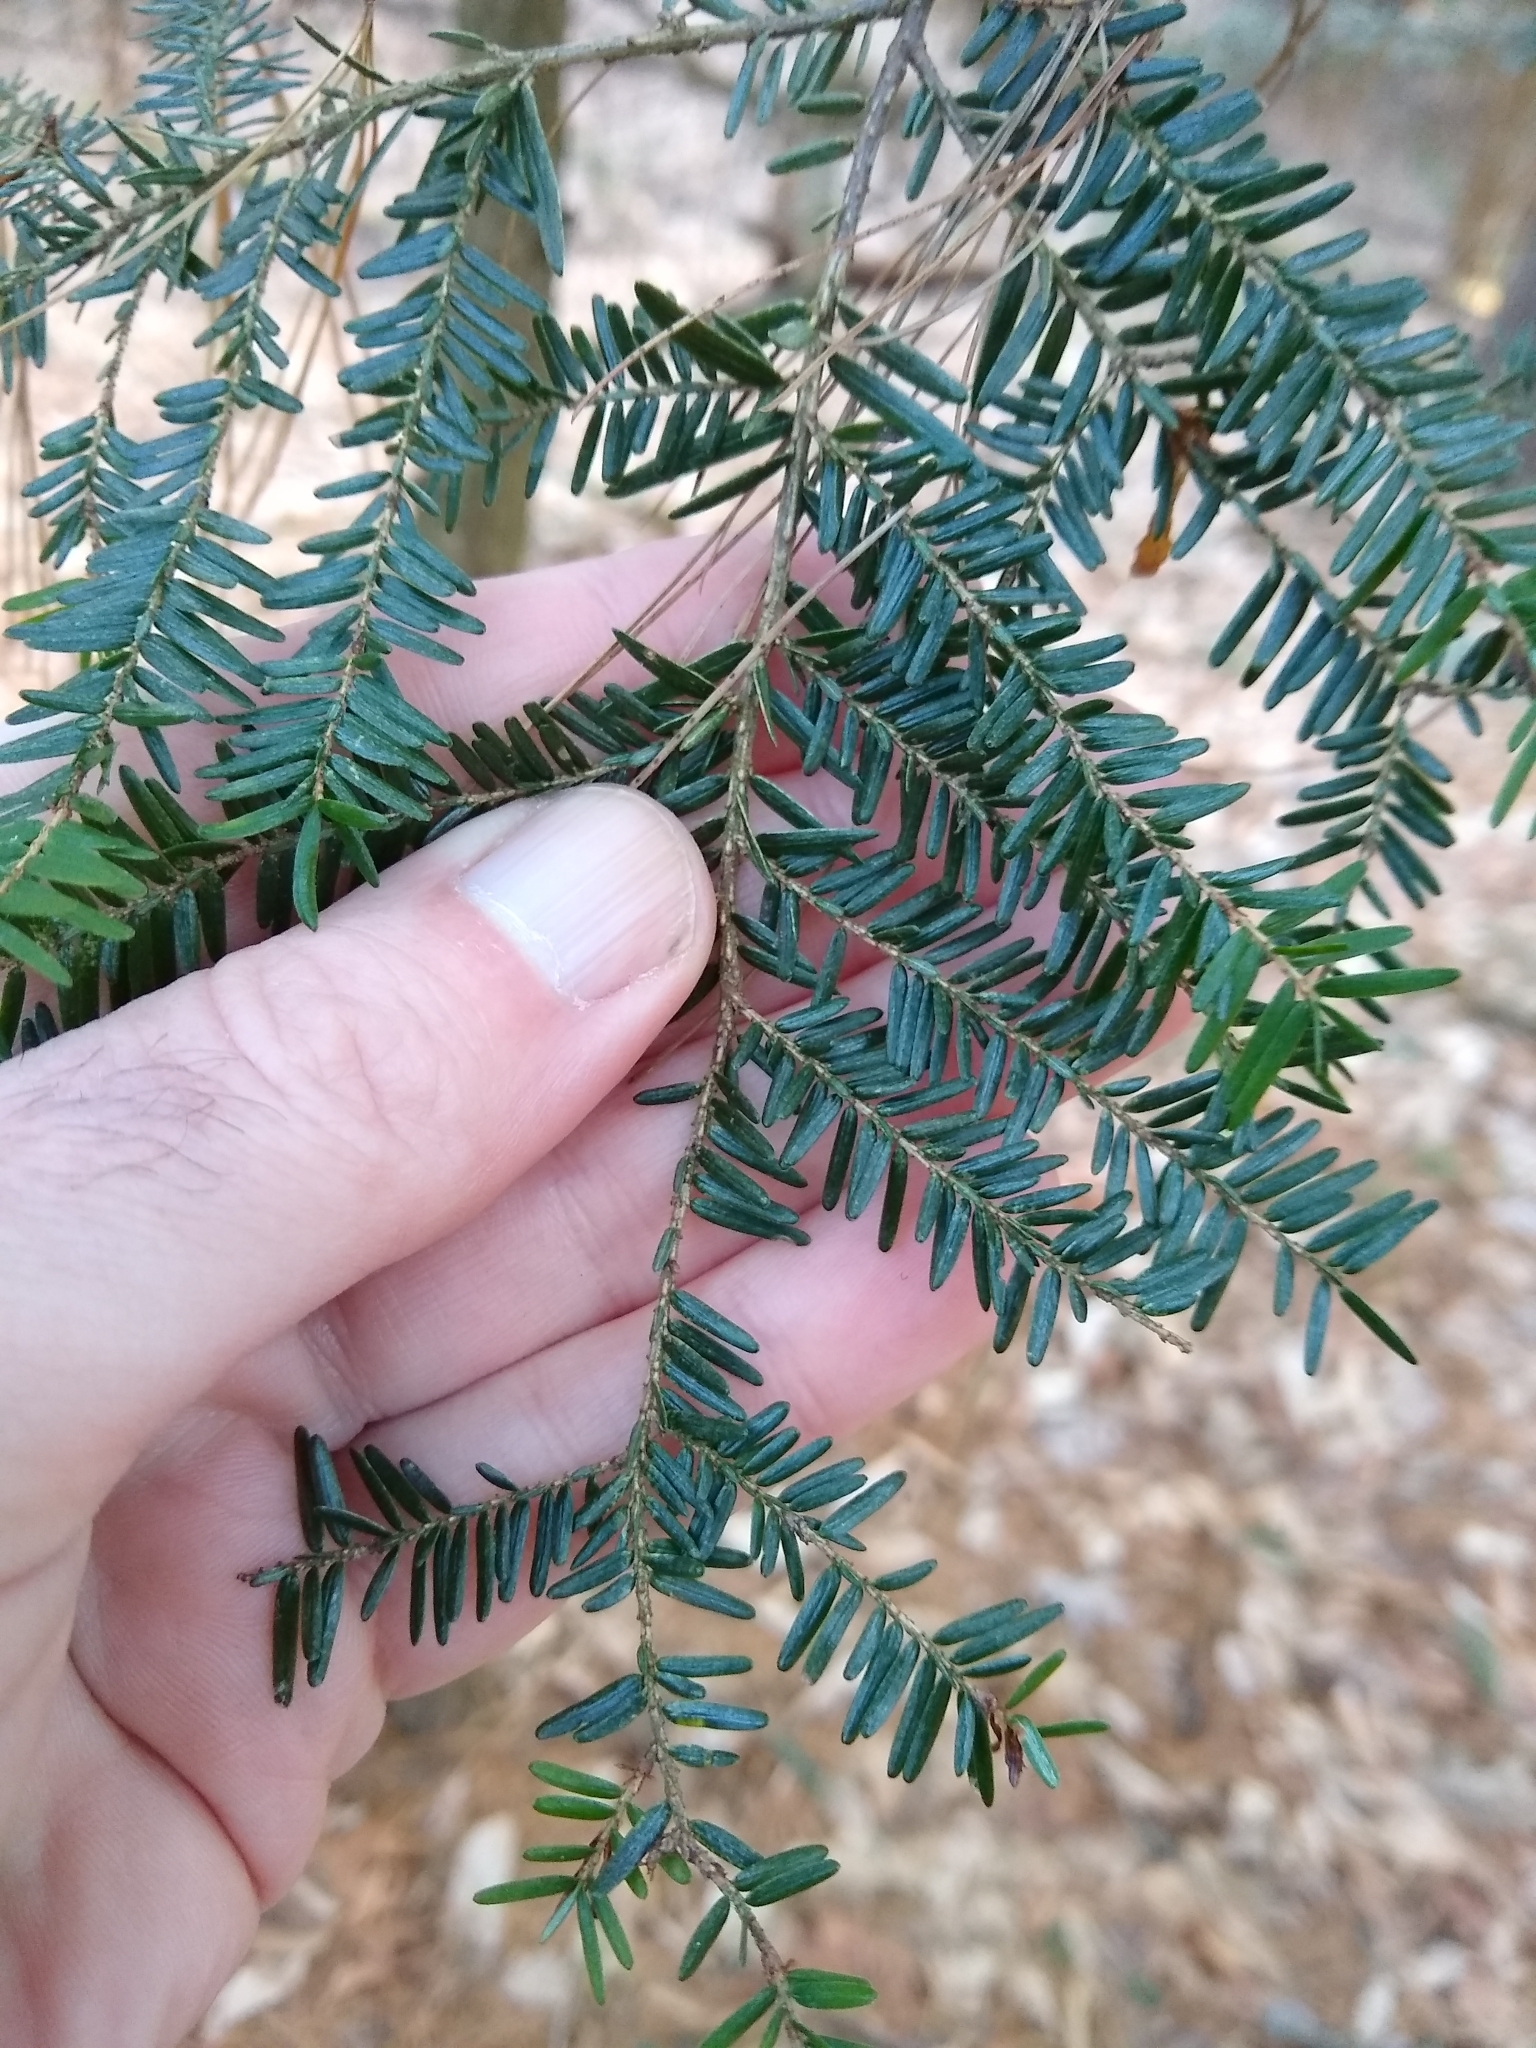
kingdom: Plantae
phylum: Tracheophyta
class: Pinopsida
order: Pinales
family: Pinaceae
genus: Tsuga
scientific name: Tsuga canadensis
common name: Eastern hemlock
